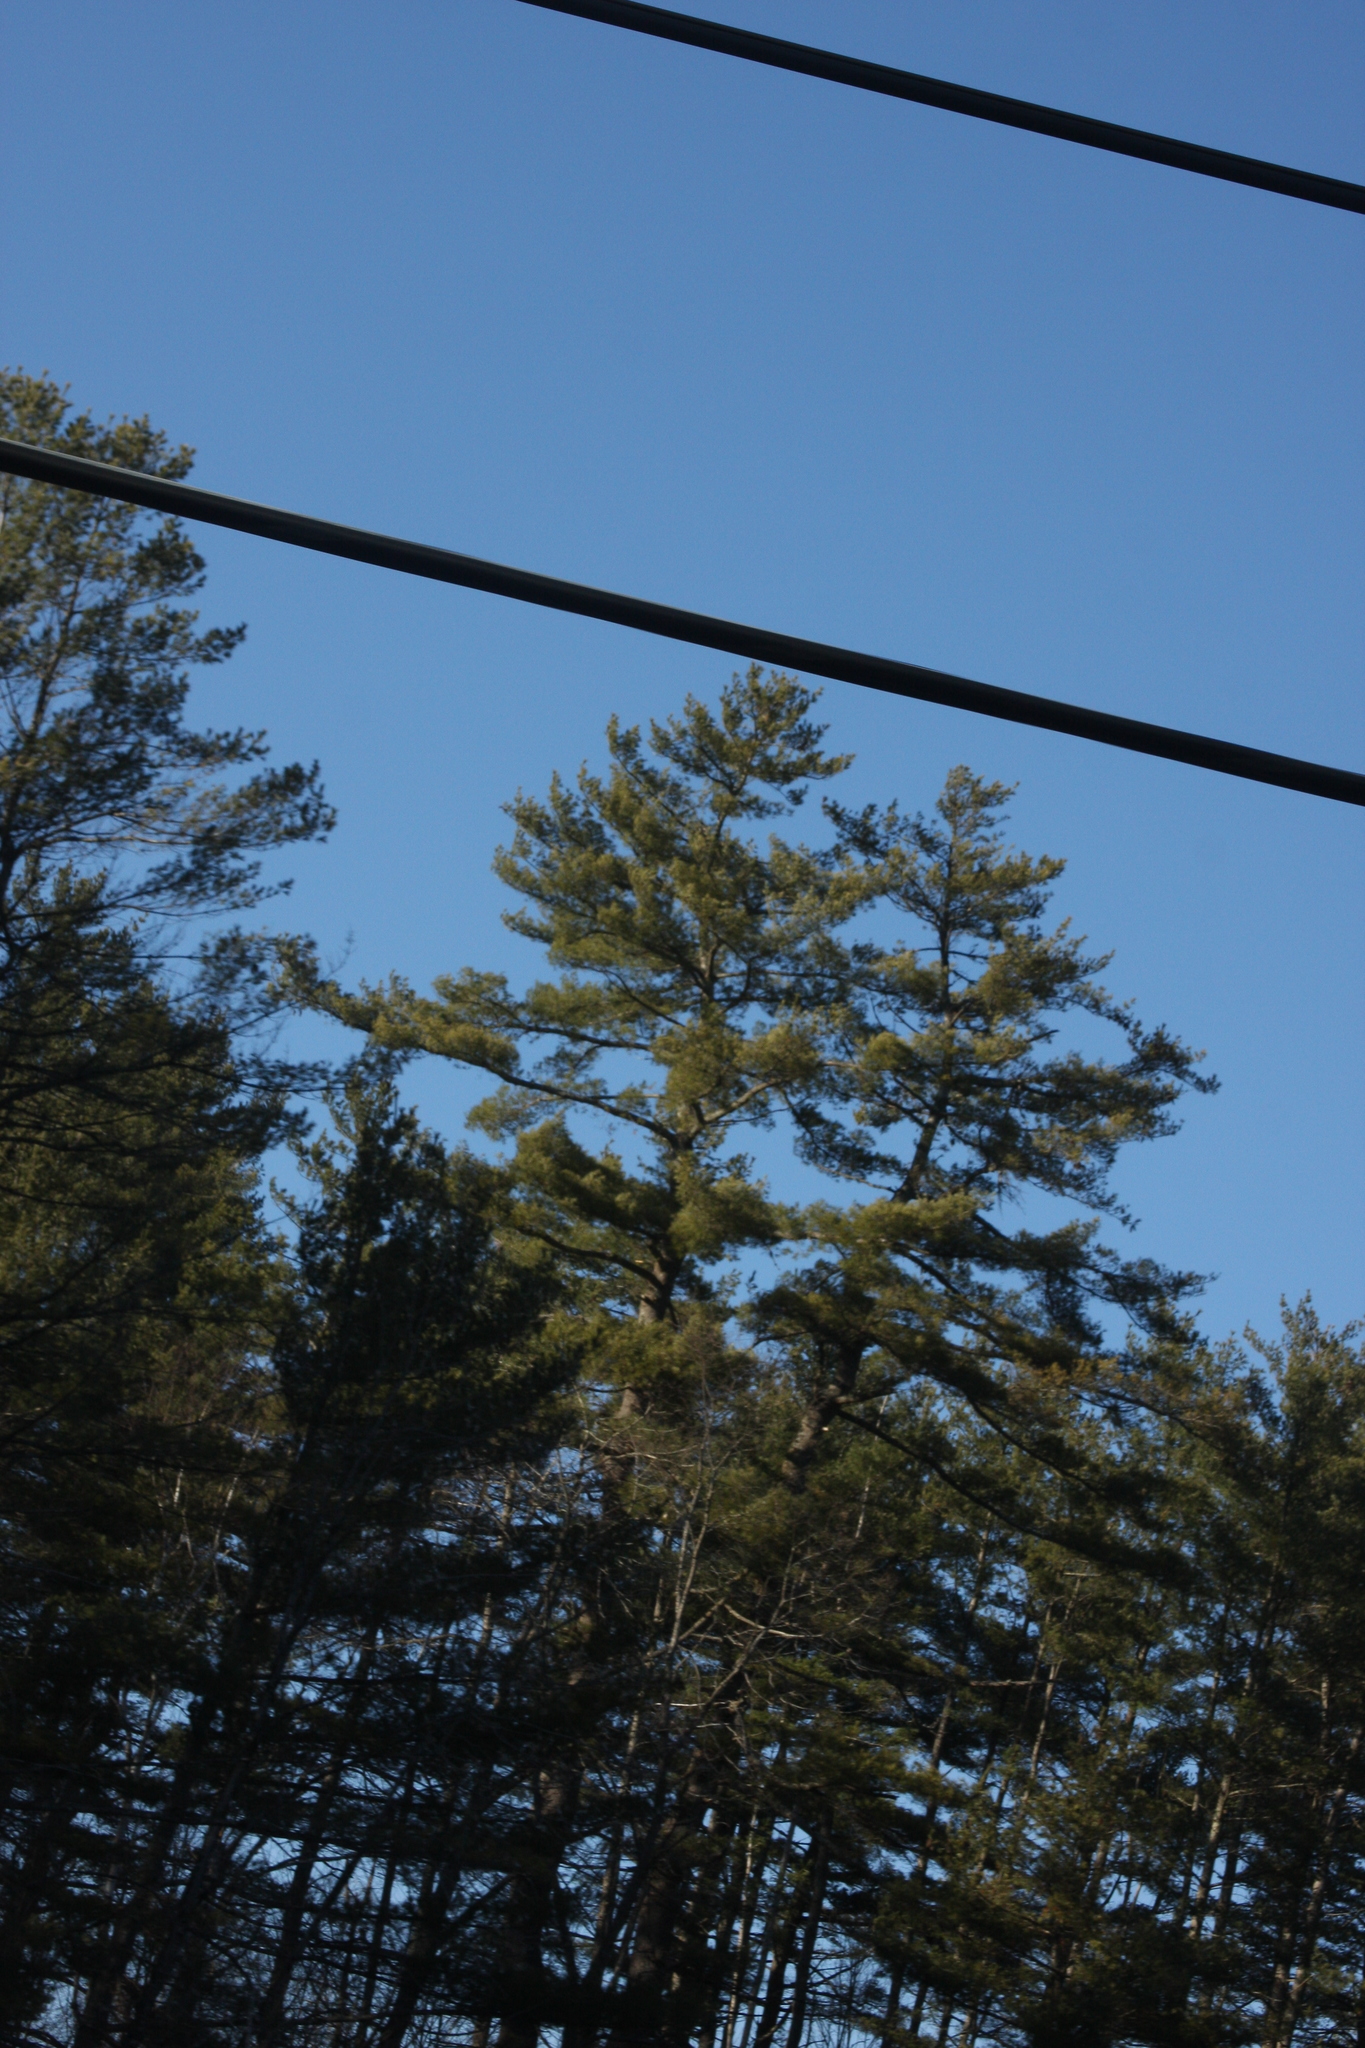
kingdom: Plantae
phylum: Tracheophyta
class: Pinopsida
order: Pinales
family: Pinaceae
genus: Pinus
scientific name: Pinus strobus
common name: Weymouth pine
